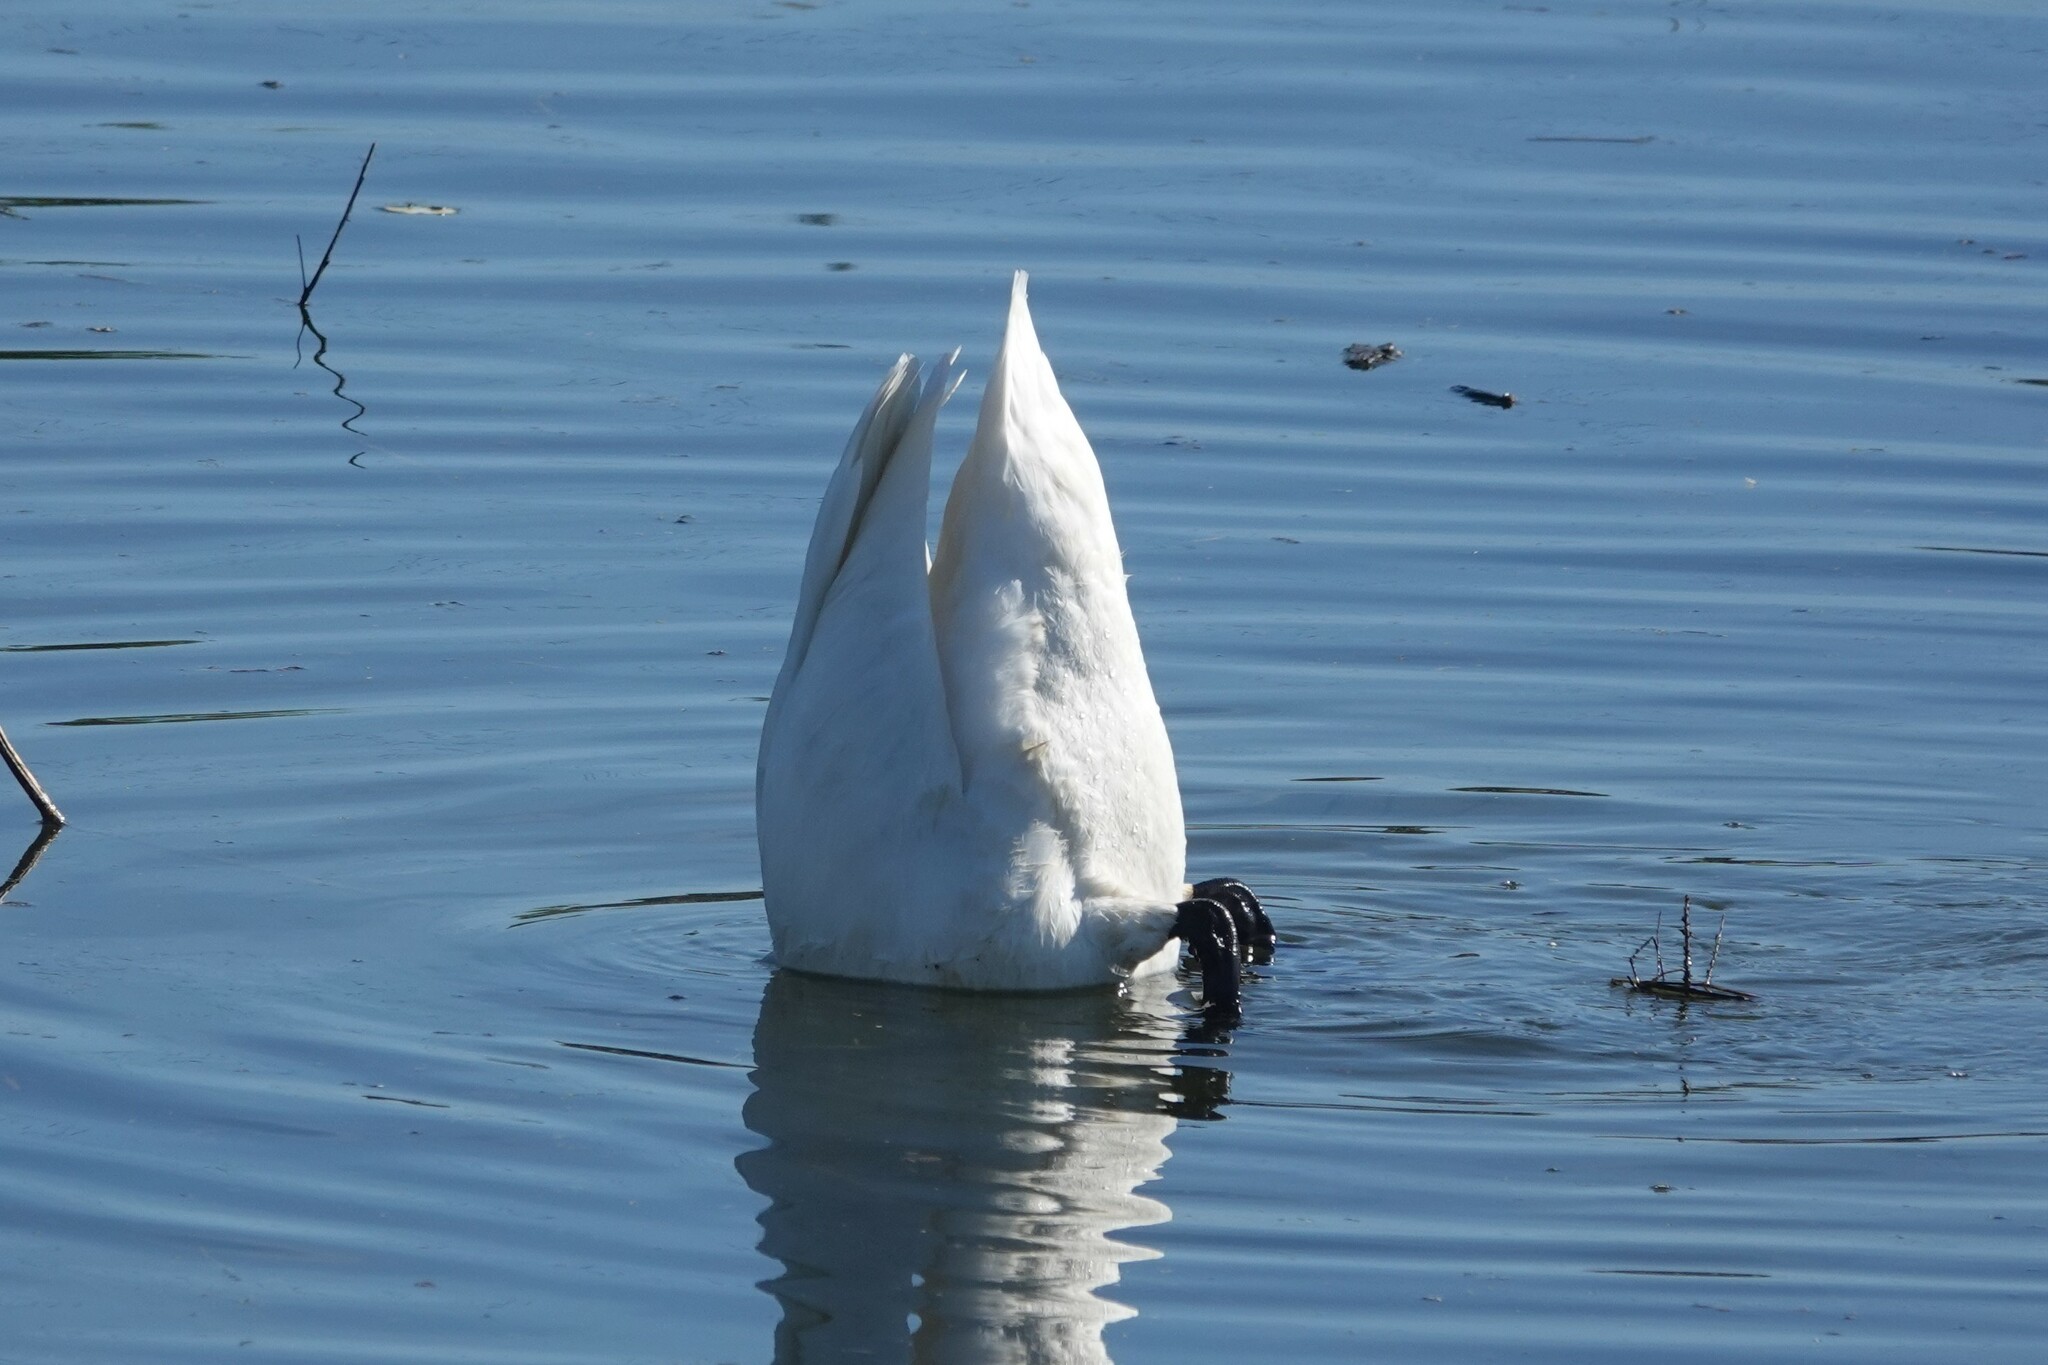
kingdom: Animalia
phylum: Chordata
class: Aves
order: Anseriformes
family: Anatidae
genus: Cygnus
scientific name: Cygnus columbianus
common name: Tundra swan
